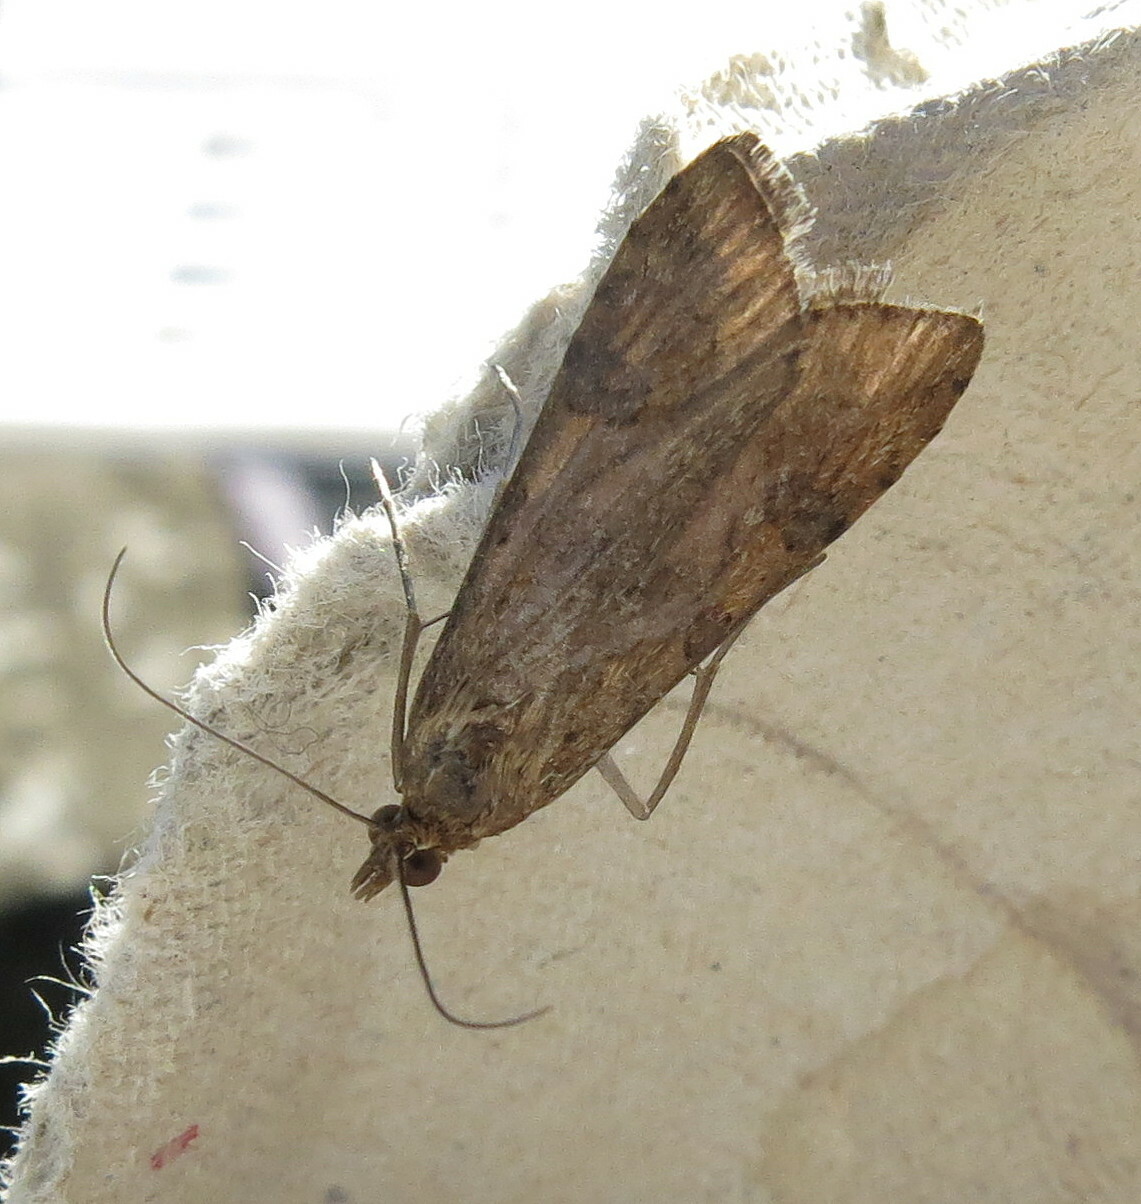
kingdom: Animalia
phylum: Arthropoda
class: Insecta
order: Lepidoptera
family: Crambidae
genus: Nomophila
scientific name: Nomophila noctuella
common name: Rush veneer
